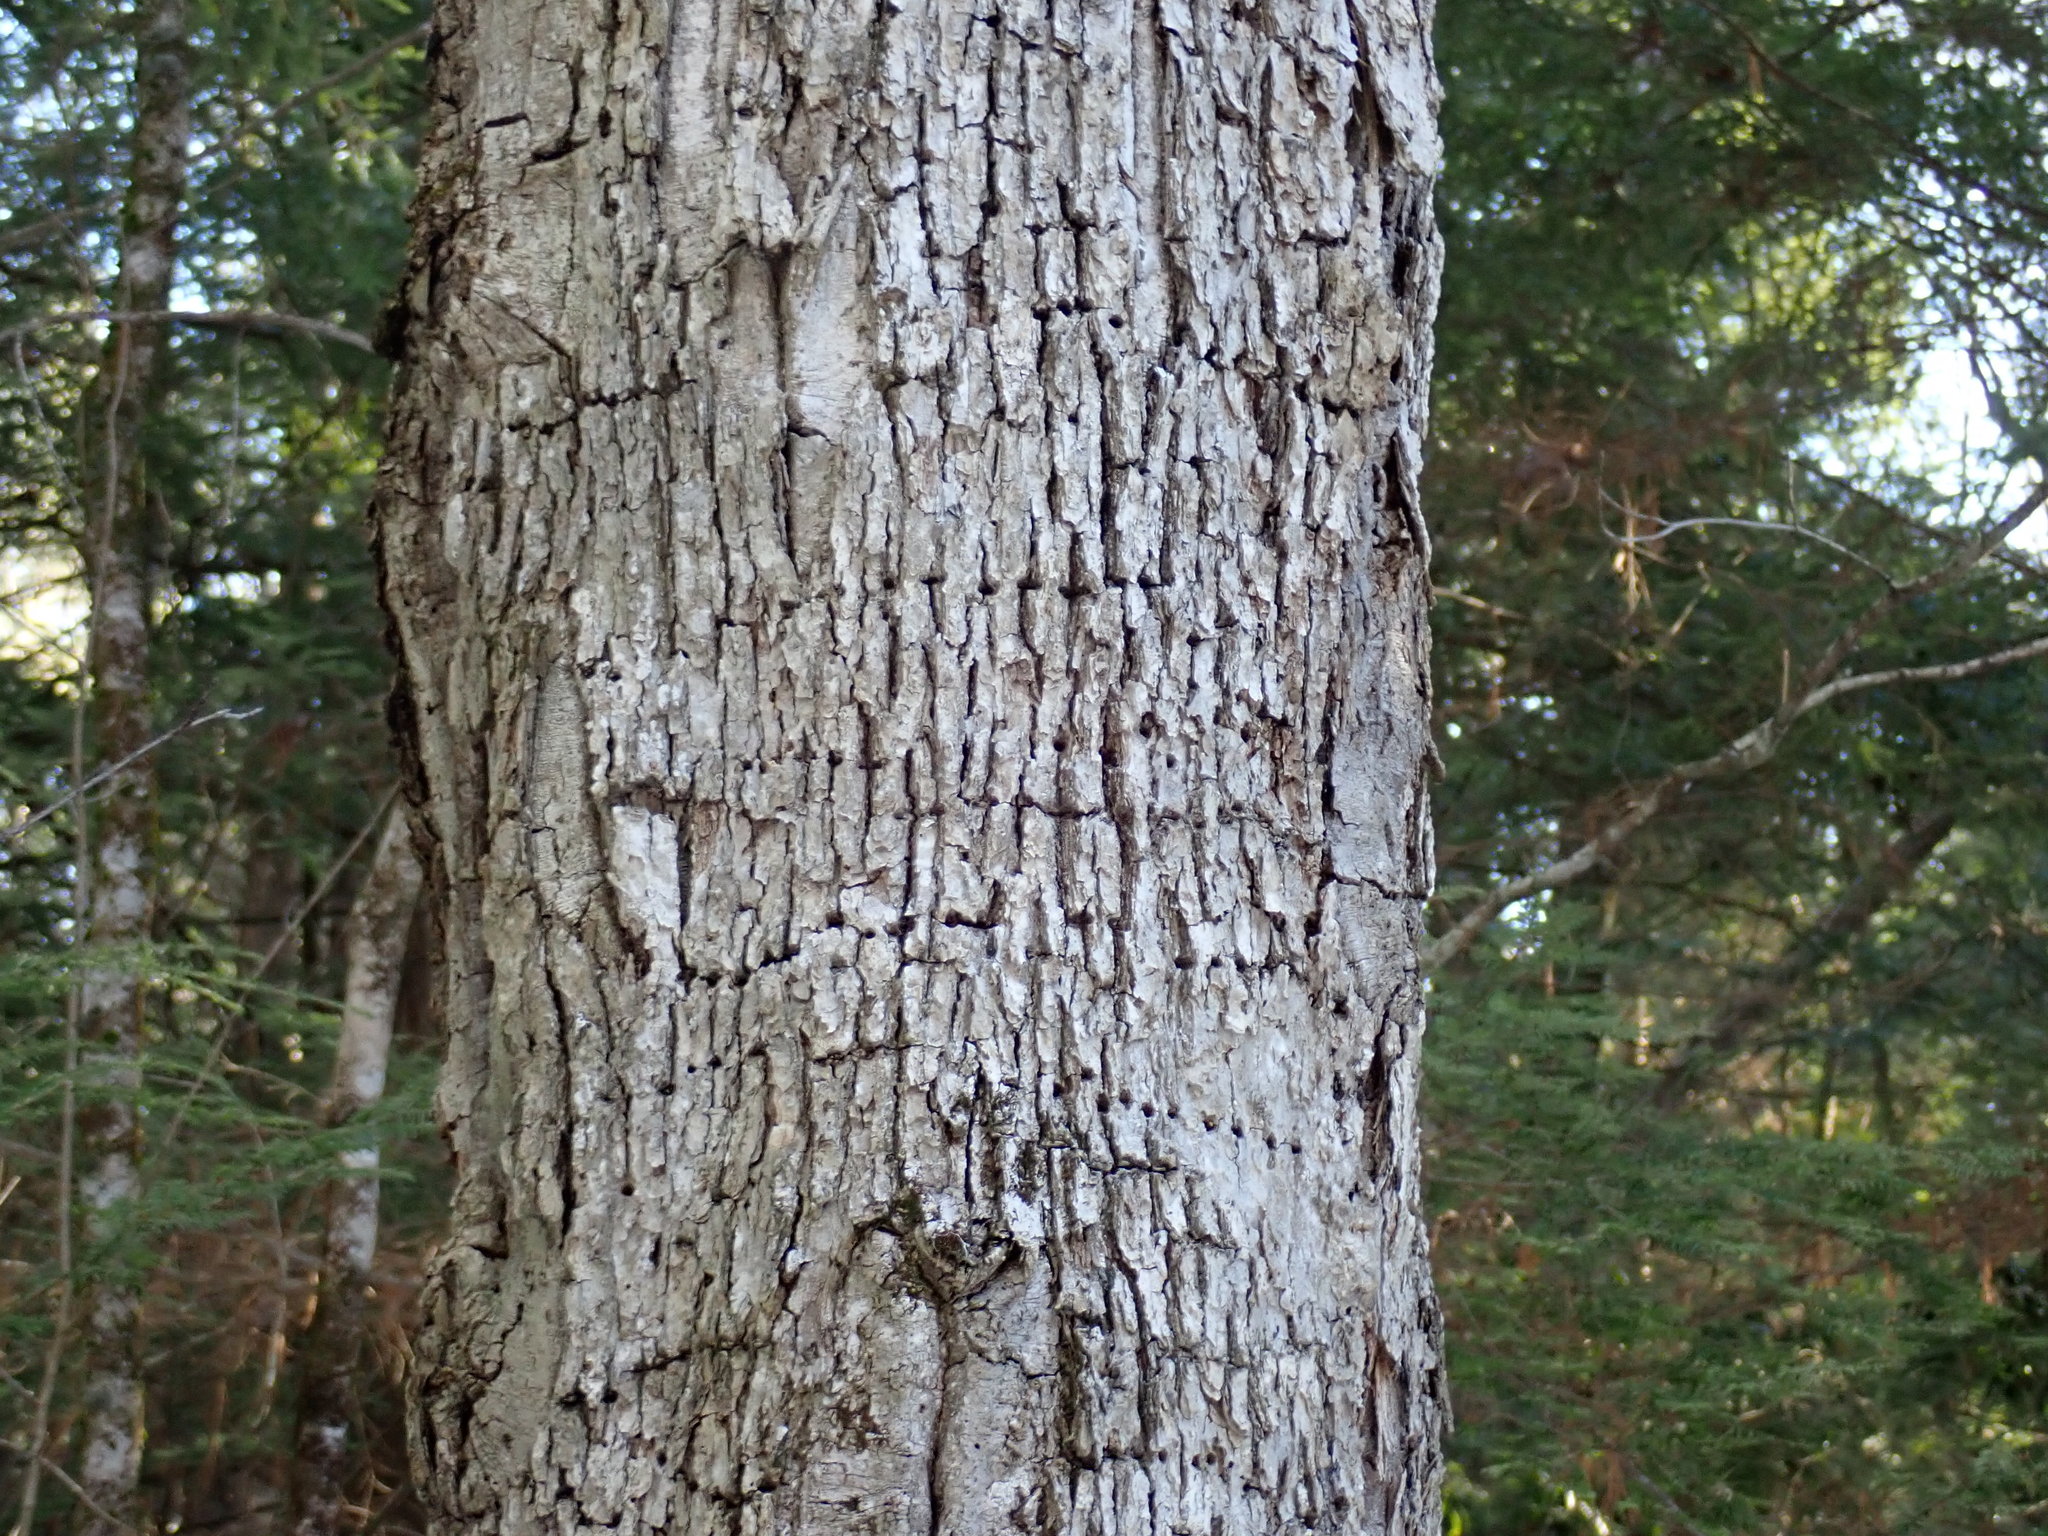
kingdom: Animalia
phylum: Chordata
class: Aves
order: Piciformes
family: Picidae
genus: Sphyrapicus
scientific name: Sphyrapicus varius
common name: Yellow-bellied sapsucker
